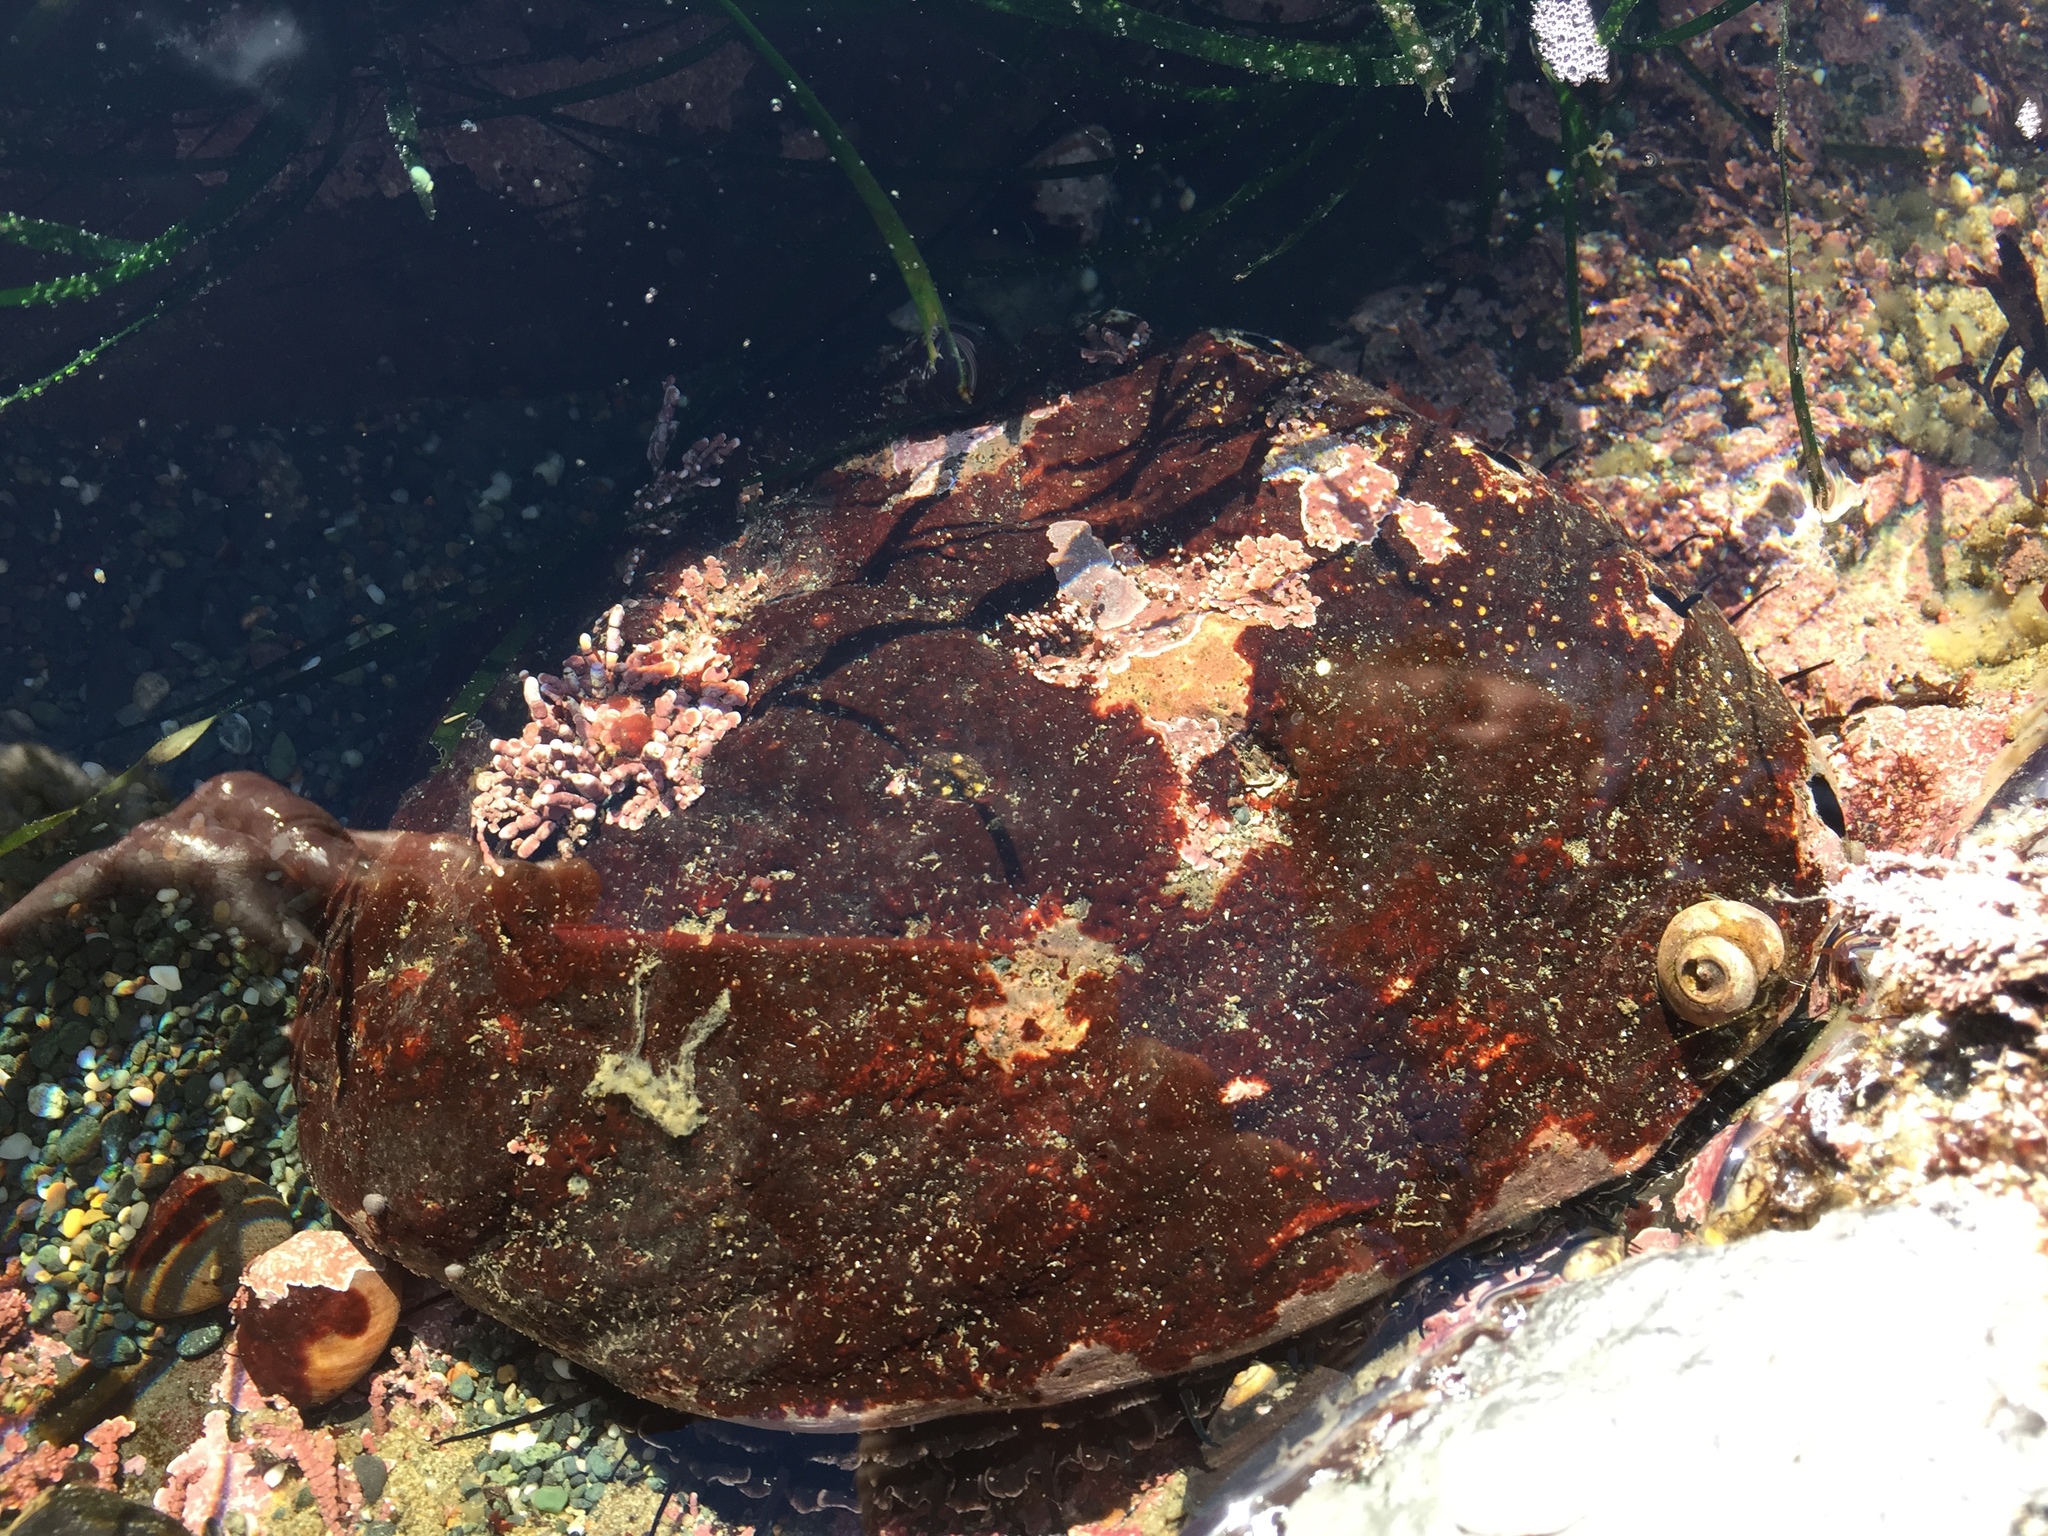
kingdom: Animalia
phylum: Mollusca
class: Gastropoda
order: Lepetellida
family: Haliotidae
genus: Haliotis
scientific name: Haliotis rufescens
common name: Red abalone
